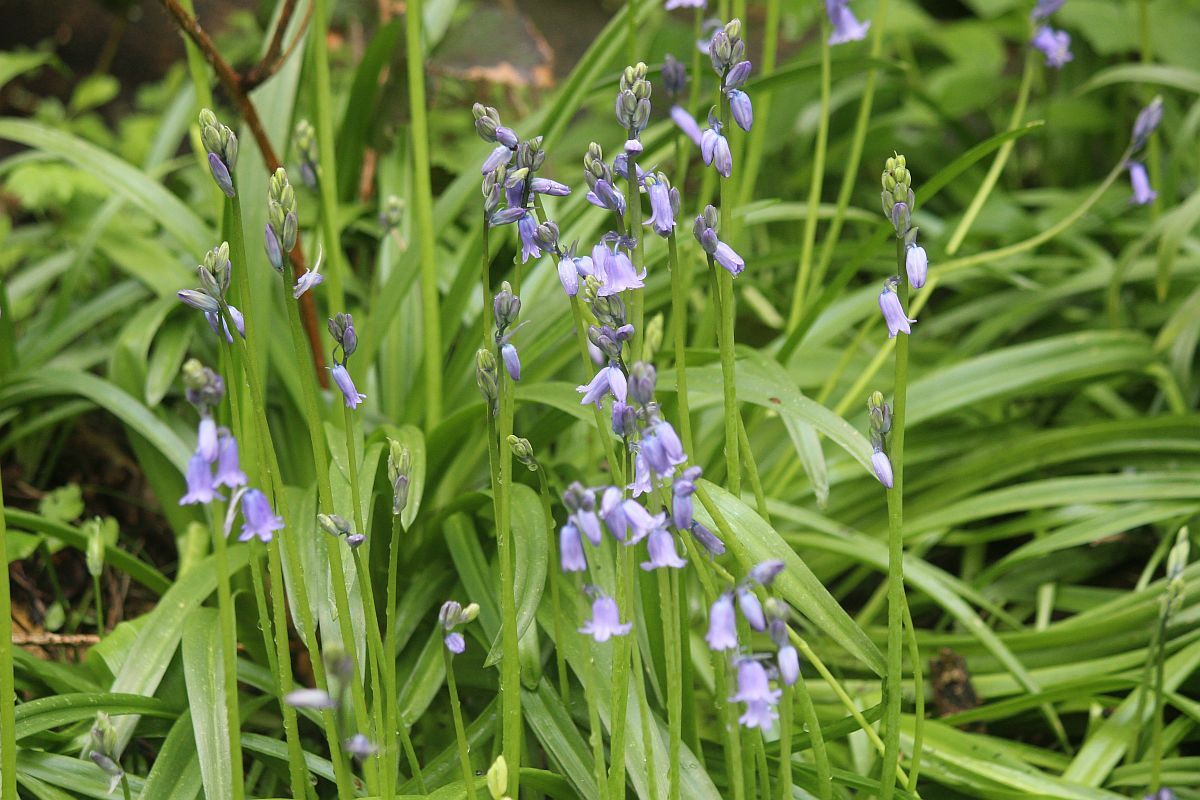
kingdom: Plantae
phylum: Tracheophyta
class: Liliopsida
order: Asparagales
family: Asparagaceae
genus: Hyacinthoides
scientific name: Hyacinthoides non-scripta
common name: Bluebell
